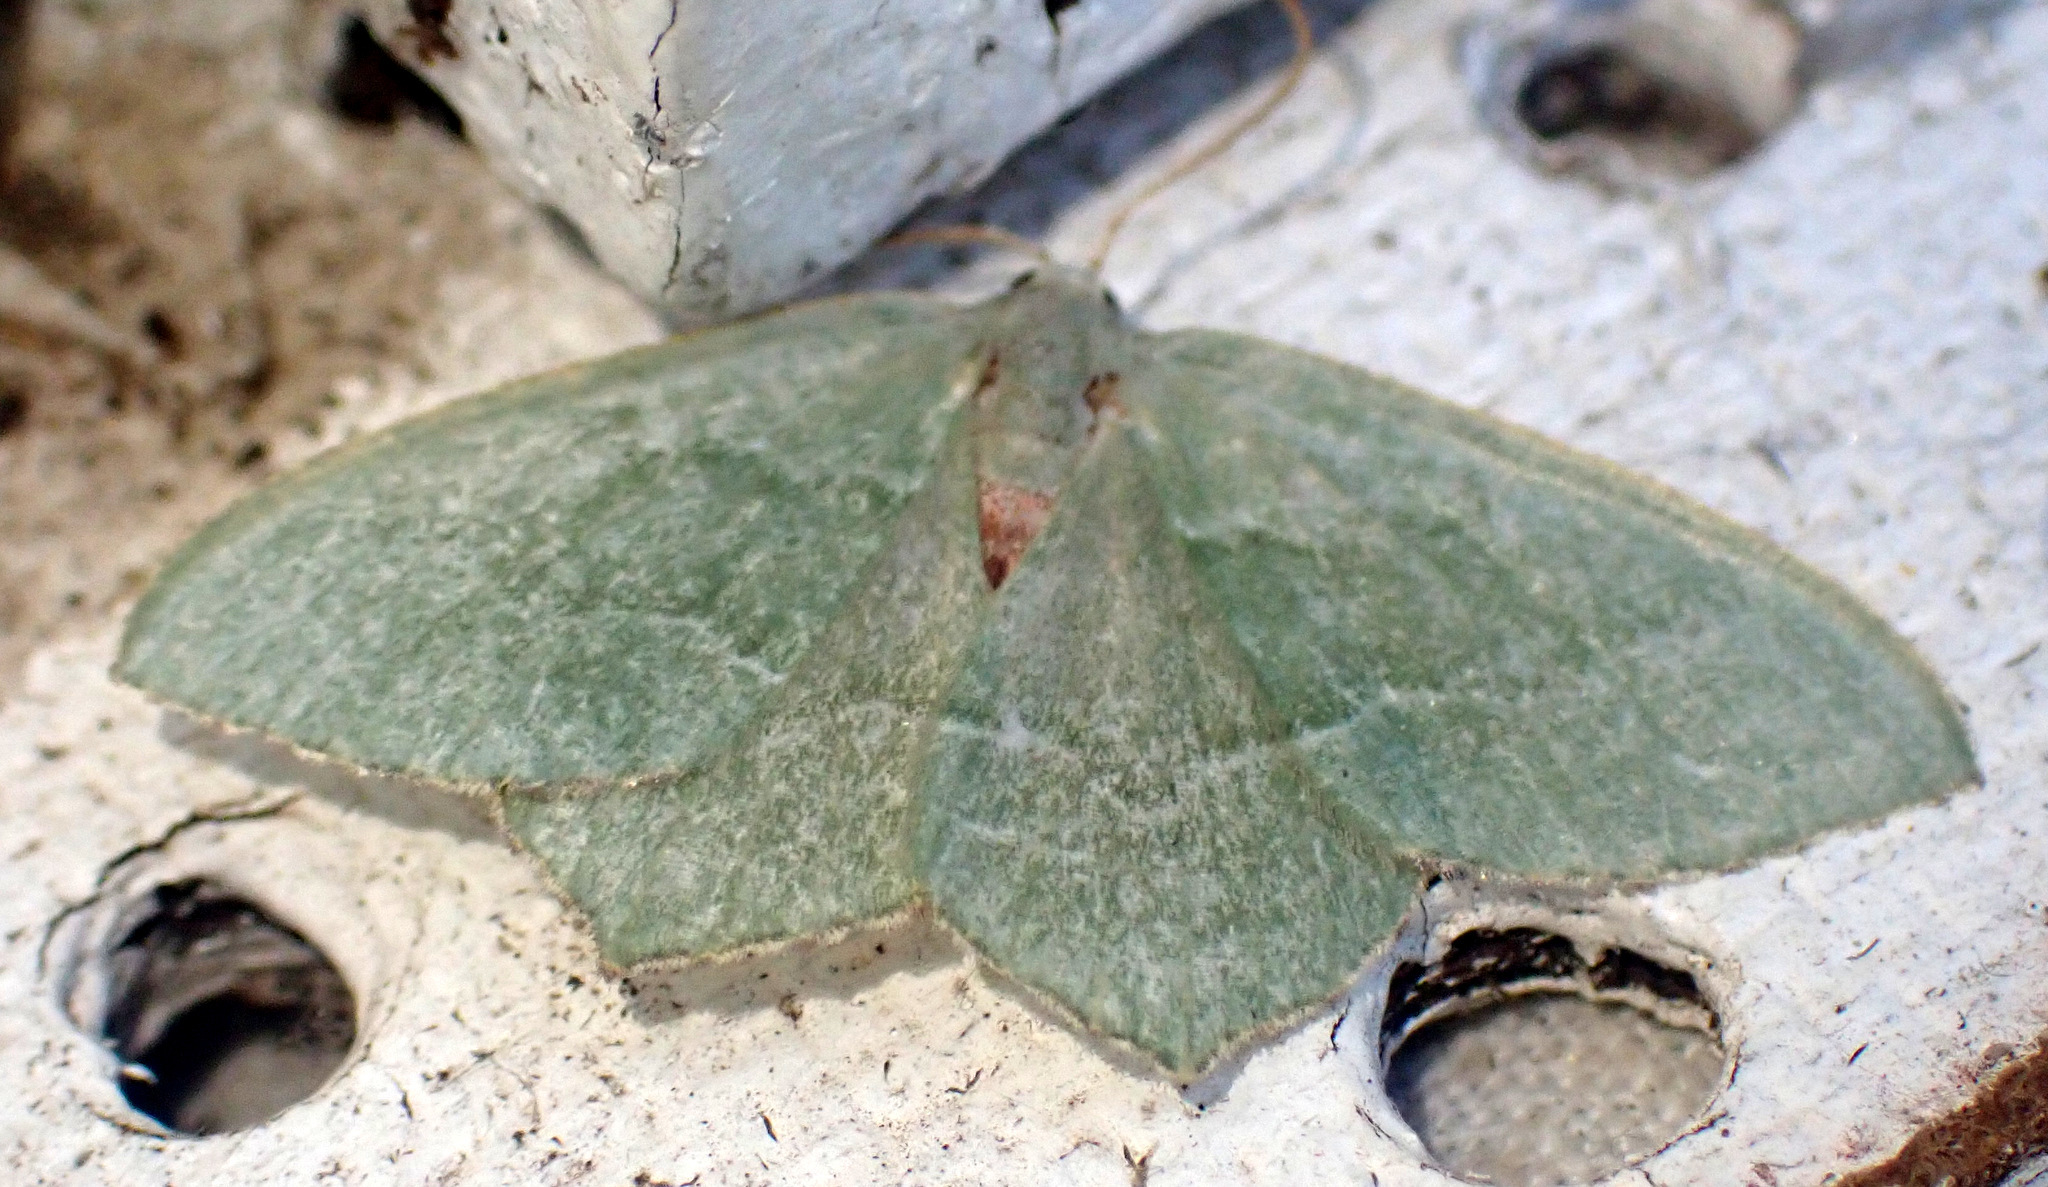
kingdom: Animalia
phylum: Arthropoda
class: Insecta
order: Lepidoptera
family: Geometridae
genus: Hemithea
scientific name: Hemithea aestivaria
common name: Common emerald
